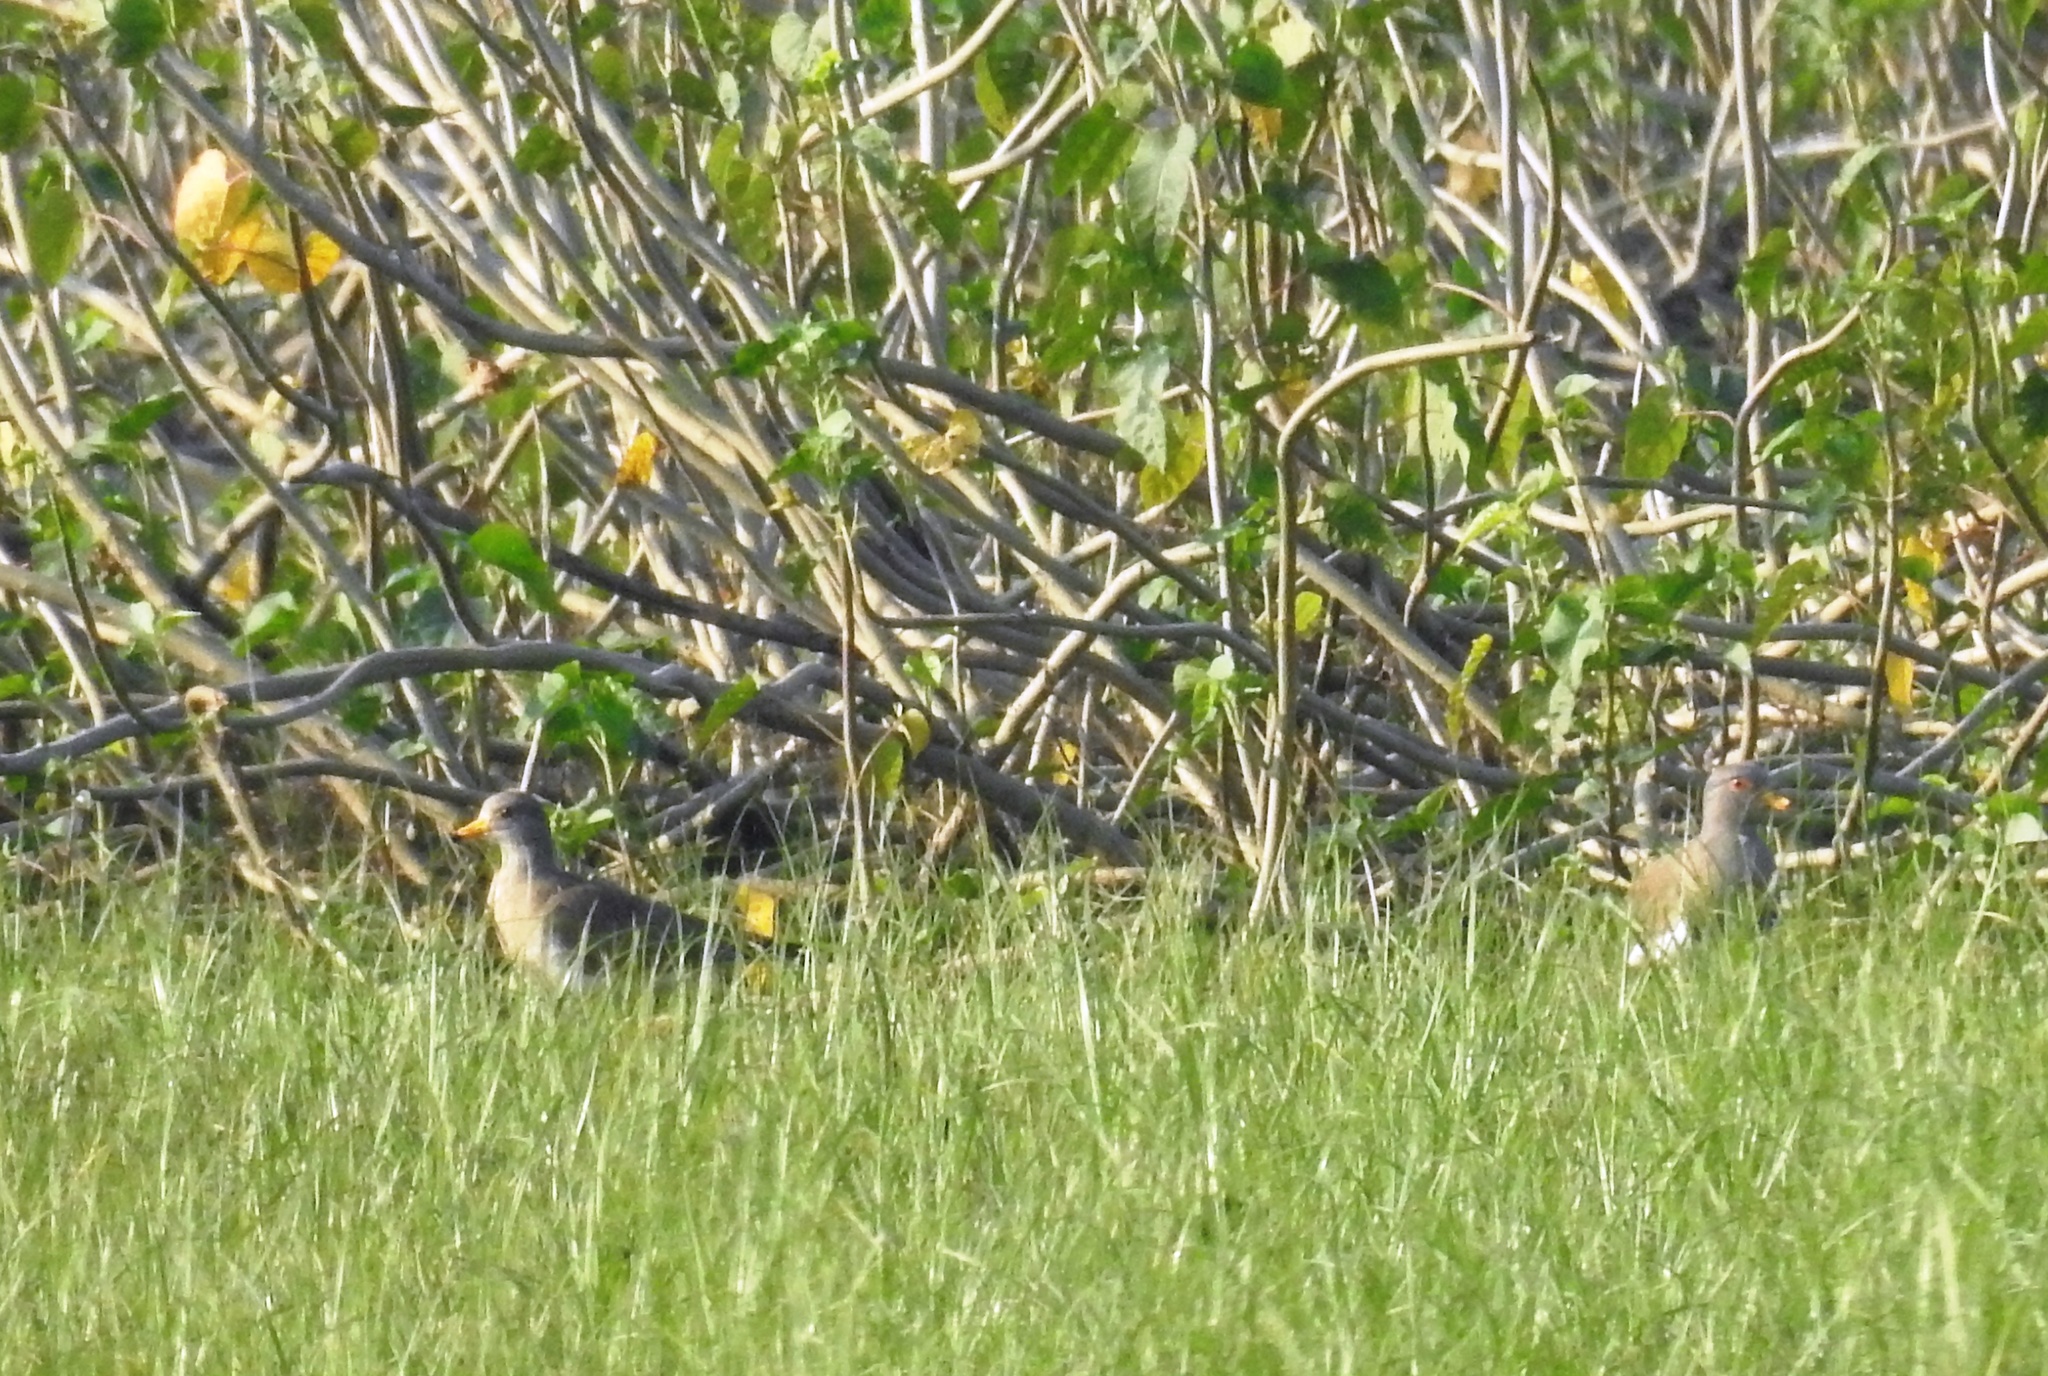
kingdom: Animalia
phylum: Chordata
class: Aves
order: Charadriiformes
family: Charadriidae
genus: Vanellus
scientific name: Vanellus cinereus
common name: Grey-headed lapwing
